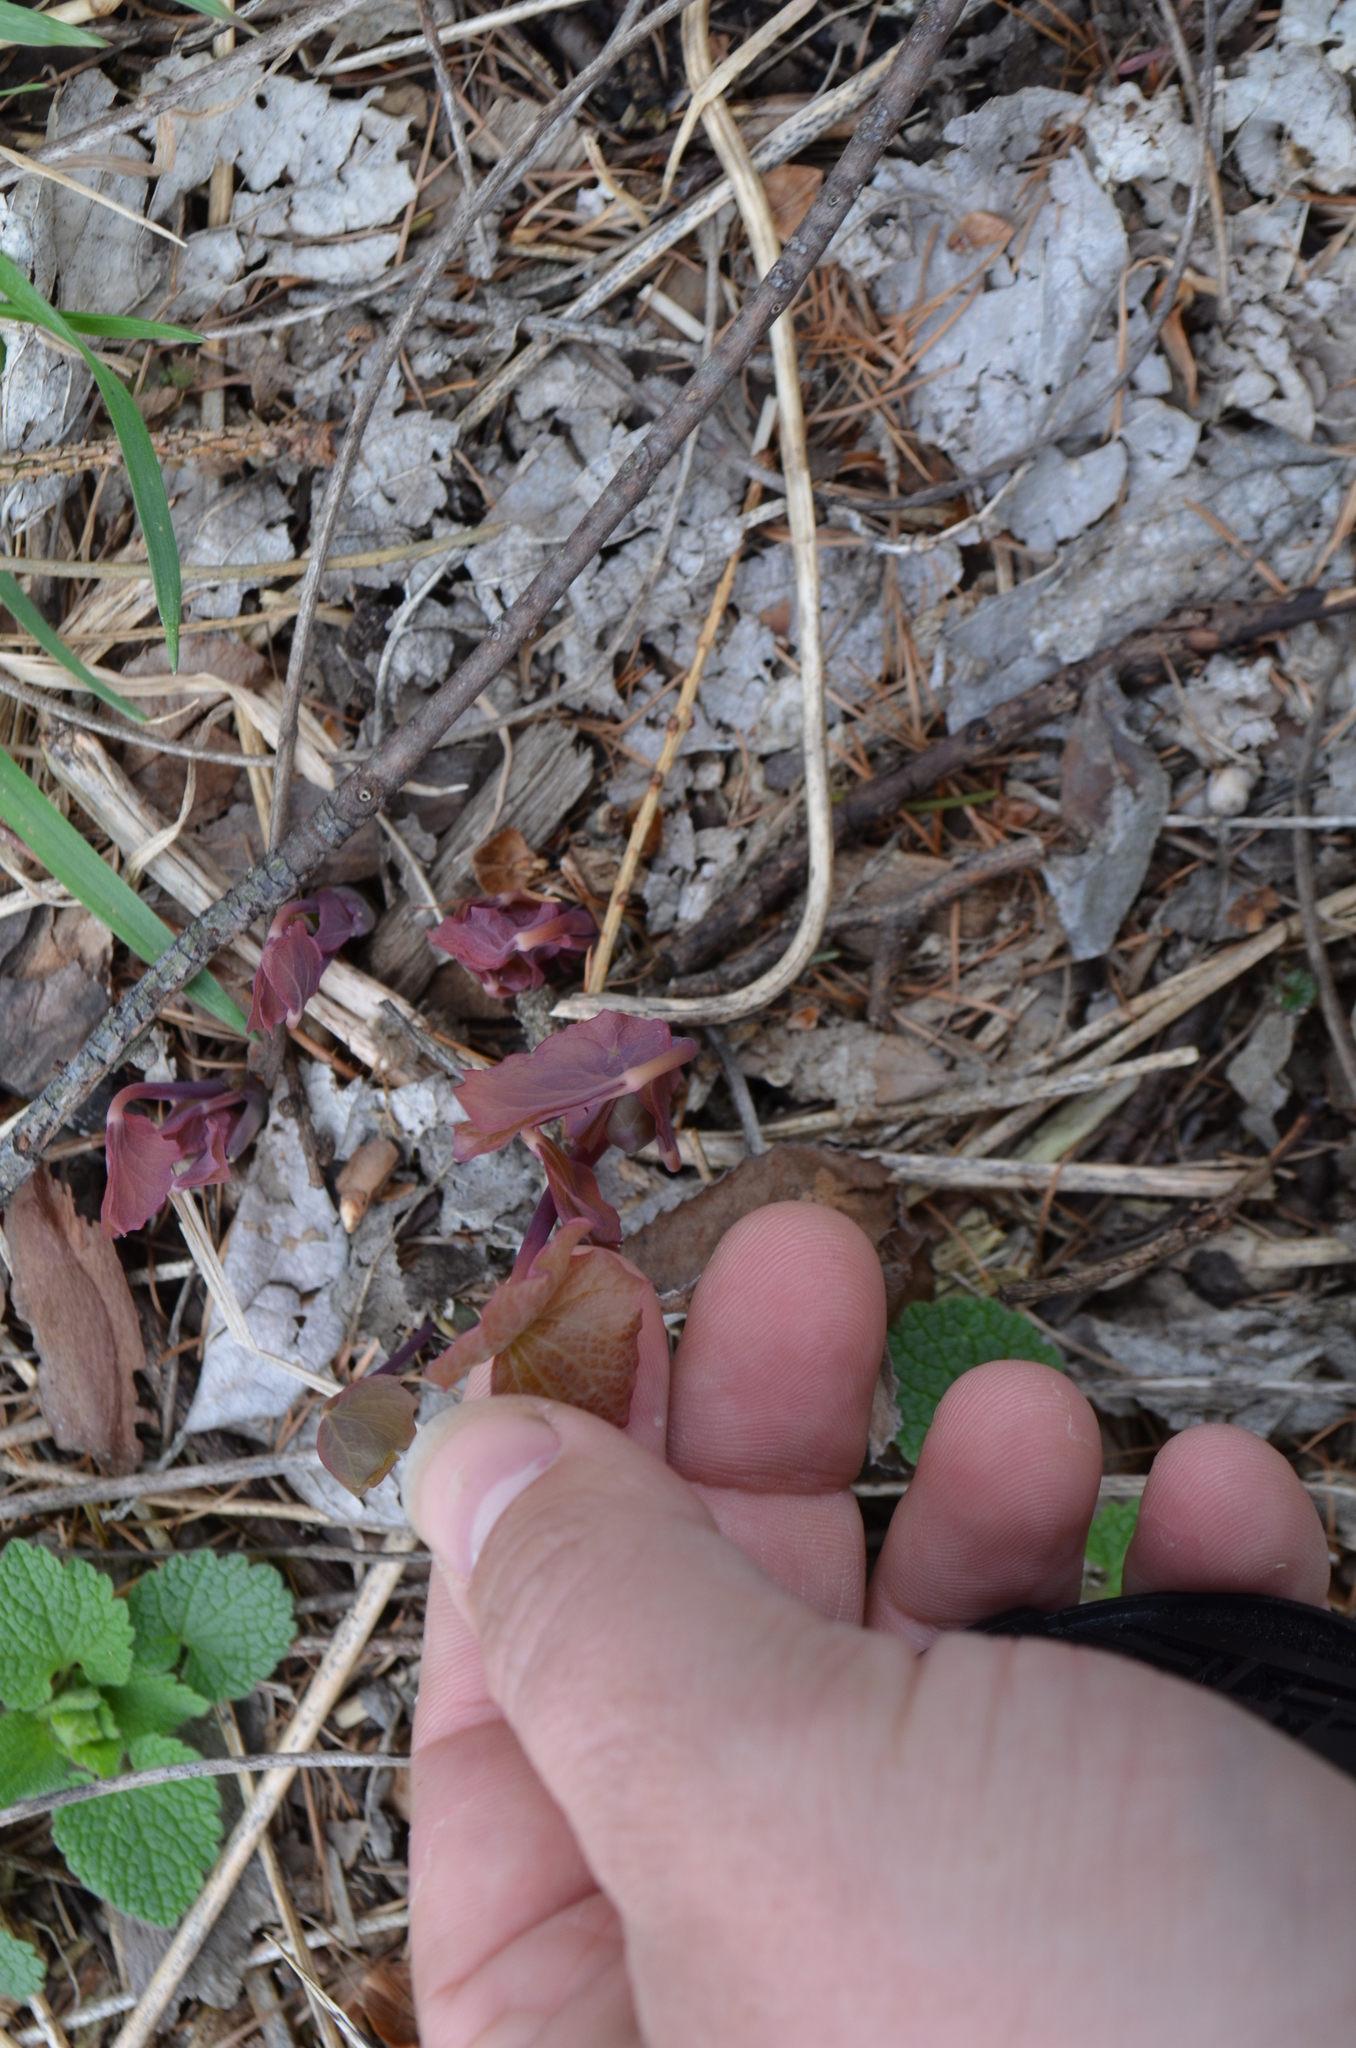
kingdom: Plantae
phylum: Tracheophyta
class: Magnoliopsida
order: Ranunculales
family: Berberidaceae
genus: Jeffersonia
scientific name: Jeffersonia diphylla
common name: Rheumatism-root
